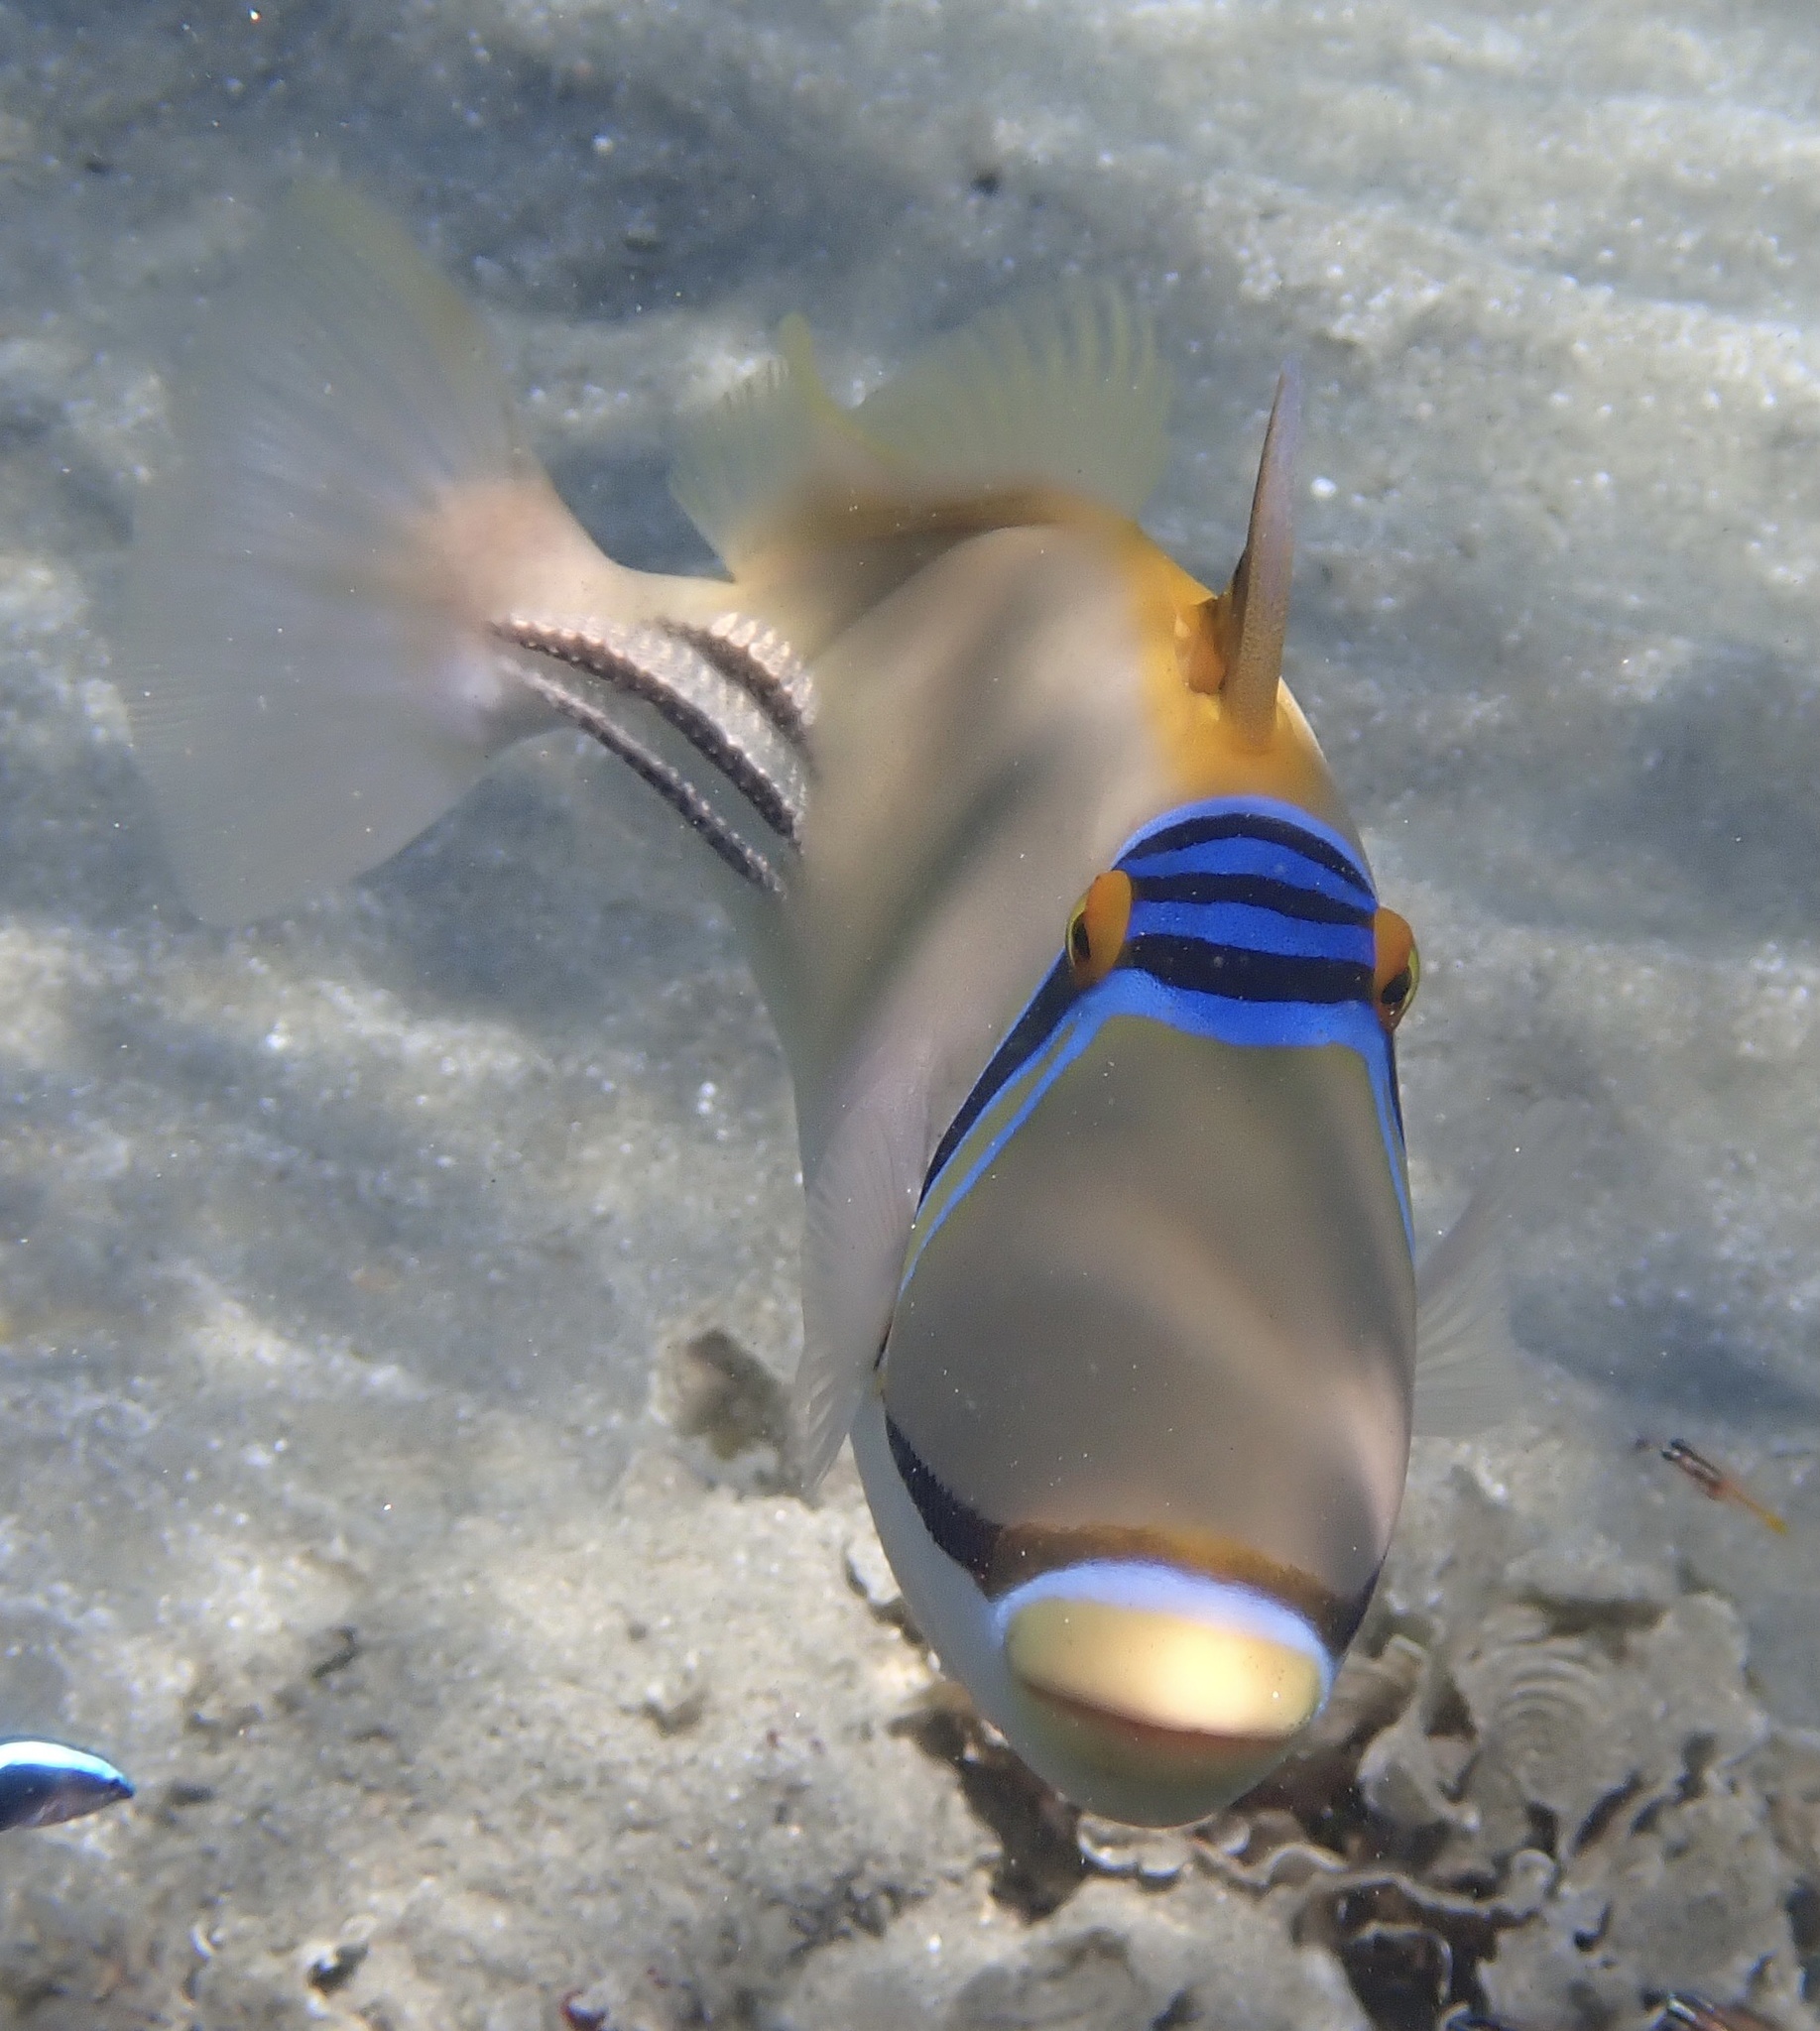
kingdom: Animalia
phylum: Chordata
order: Tetraodontiformes
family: Balistidae
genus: Rhinecanthus
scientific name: Rhinecanthus assasi
